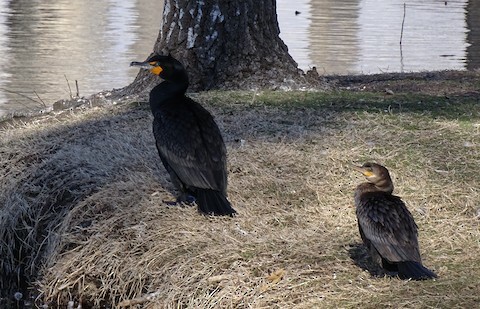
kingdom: Animalia
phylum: Chordata
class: Aves
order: Suliformes
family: Phalacrocoracidae
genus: Phalacrocorax
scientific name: Phalacrocorax brasilianus
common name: Neotropic cormorant
